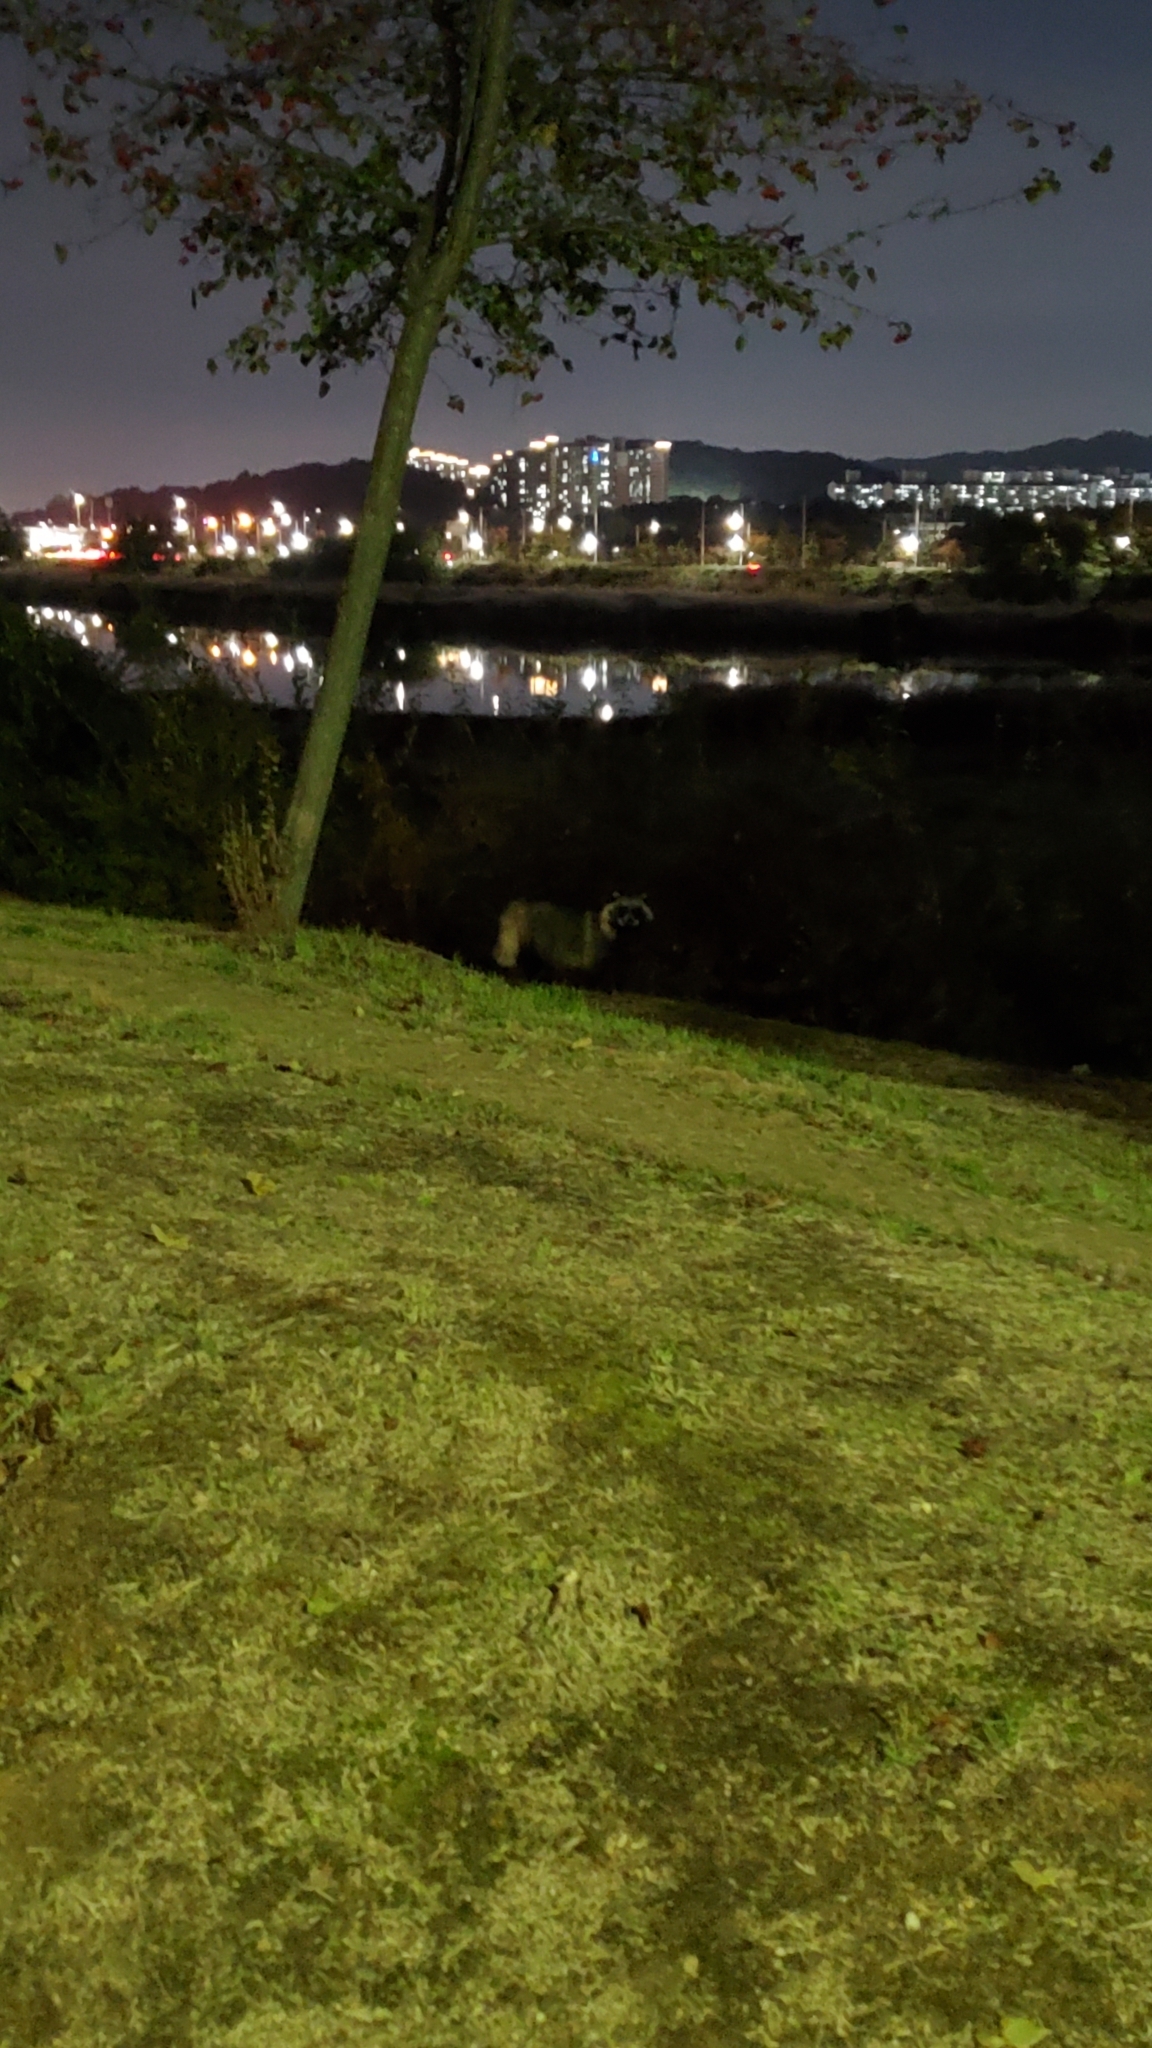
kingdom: Animalia
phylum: Chordata
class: Mammalia
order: Carnivora
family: Canidae
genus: Nyctereutes
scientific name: Nyctereutes procyonoides
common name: Raccoon dog
